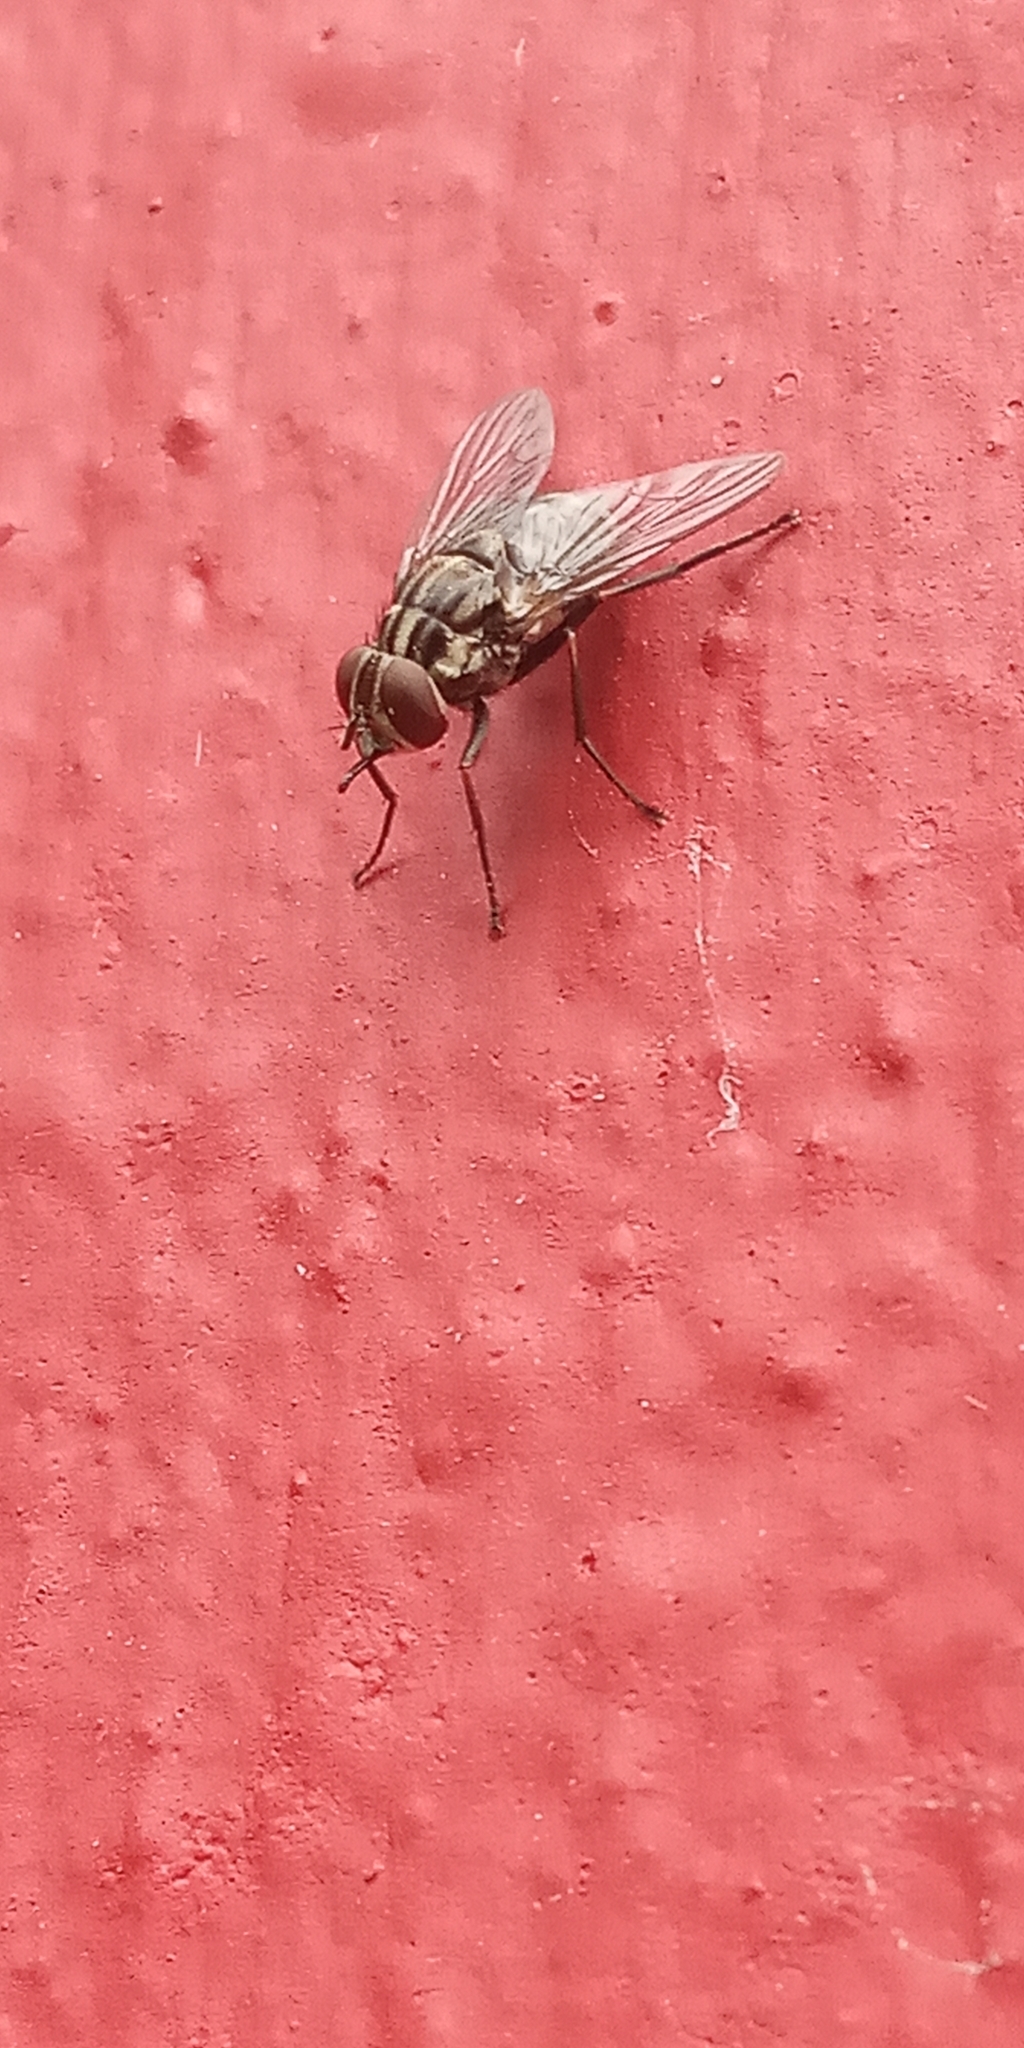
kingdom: Animalia
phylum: Arthropoda
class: Insecta
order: Diptera
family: Muscidae
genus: Stomoxys
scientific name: Stomoxys calcitrans
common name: Stable fly
